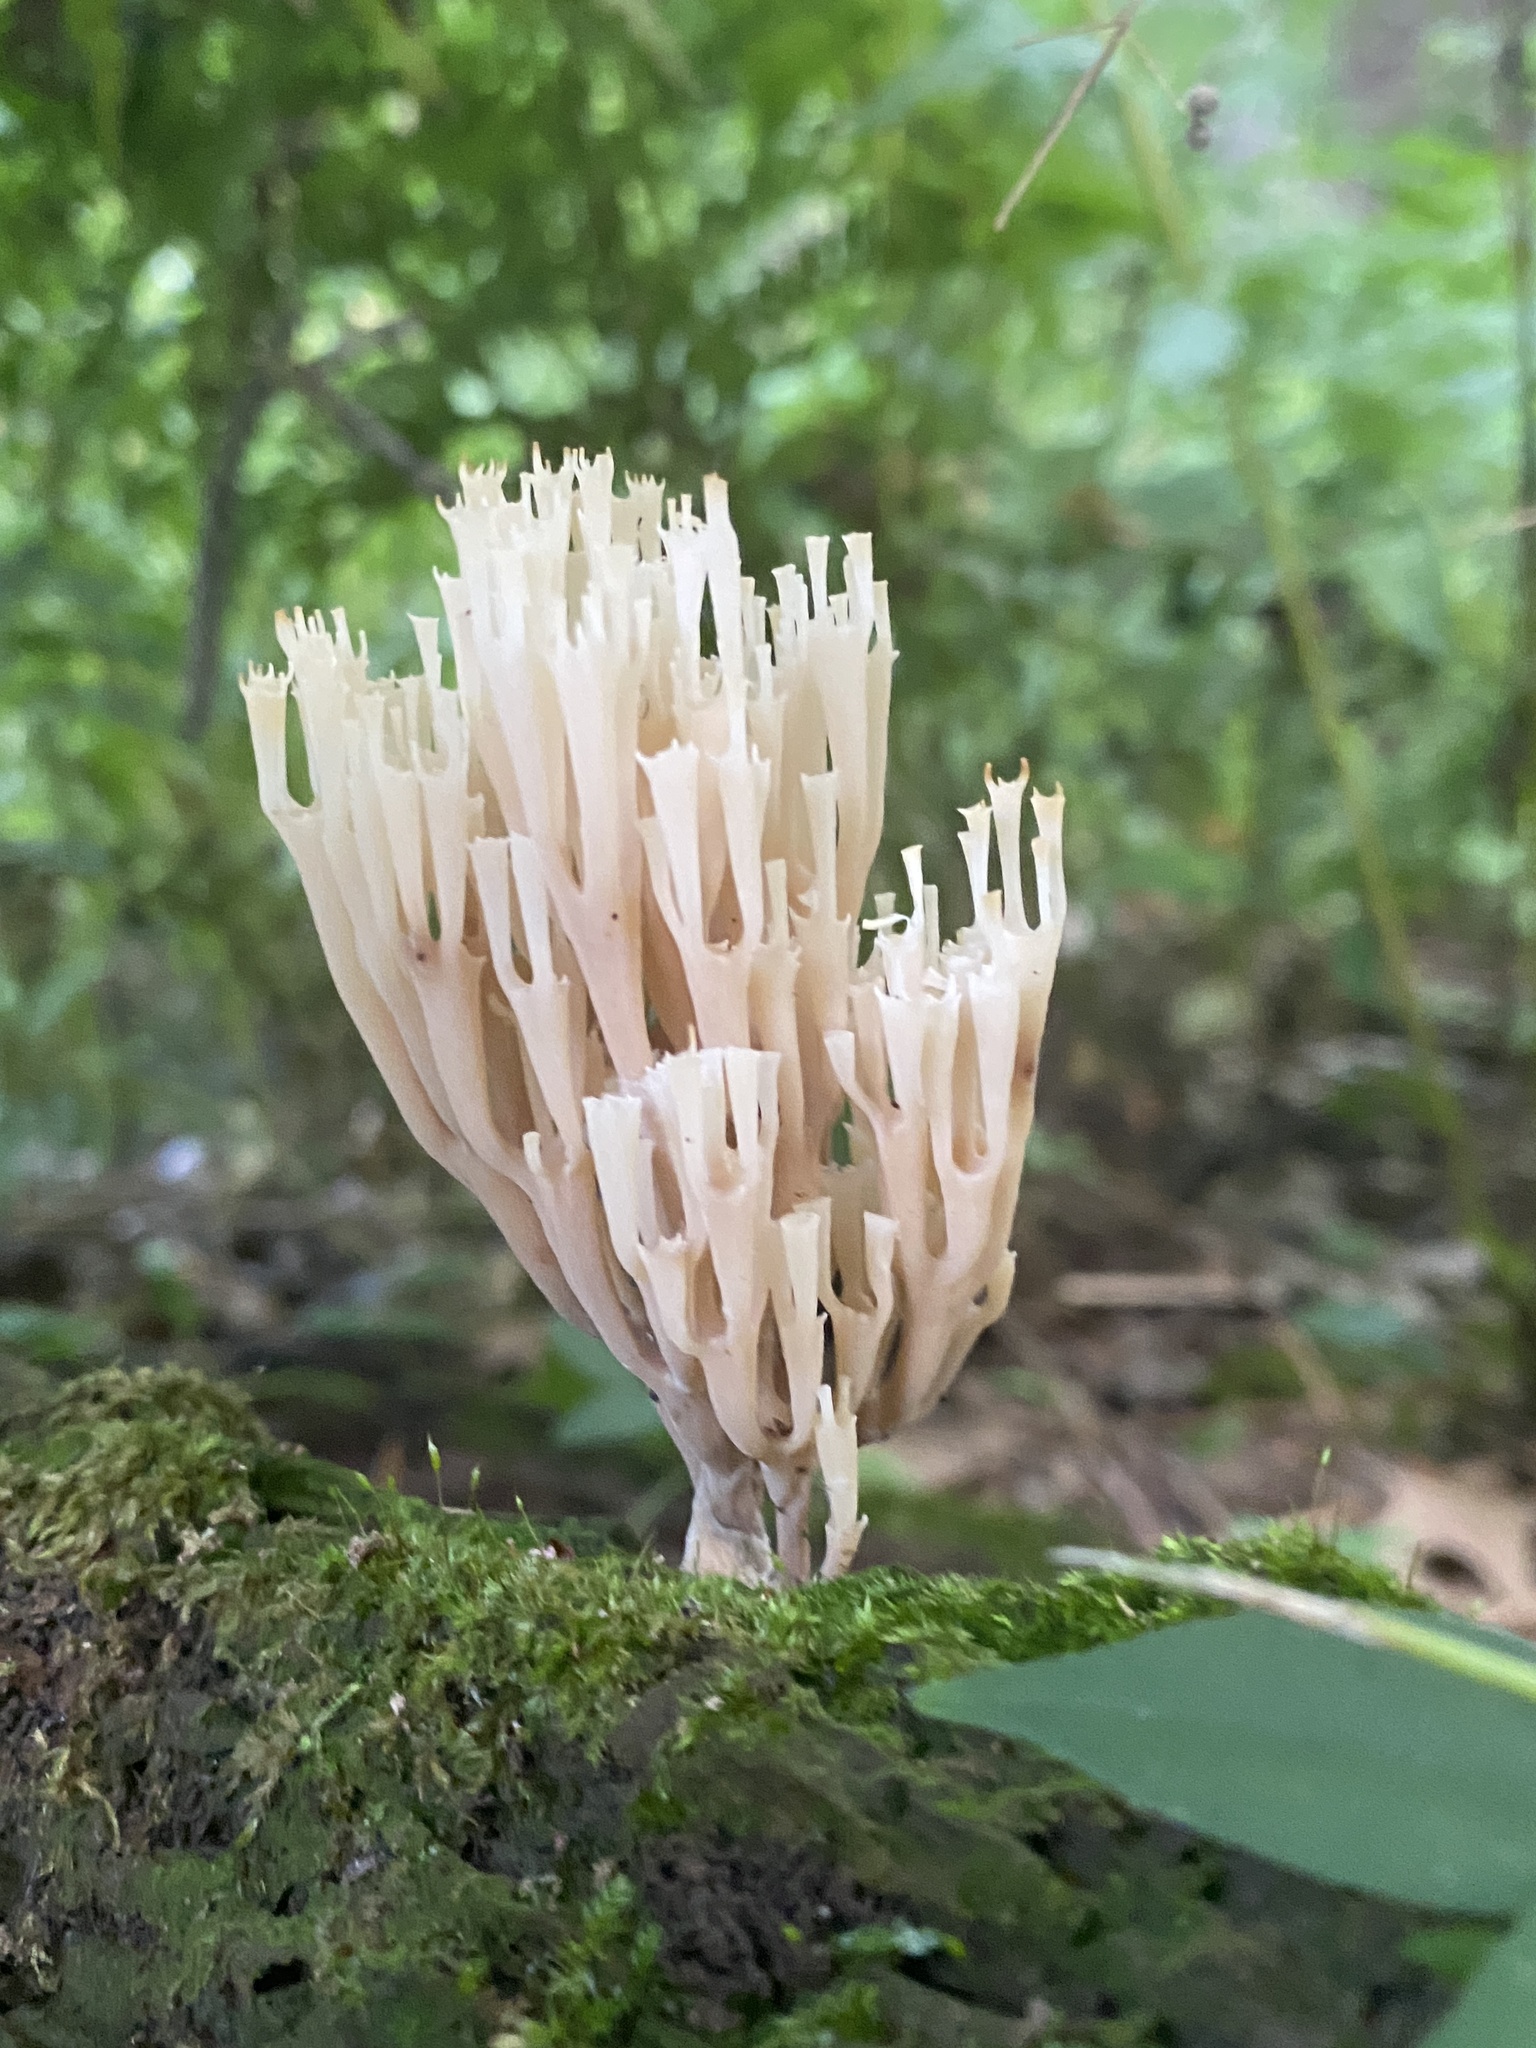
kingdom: Fungi
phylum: Basidiomycota
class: Agaricomycetes
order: Russulales
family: Auriscalpiaceae
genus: Artomyces
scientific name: Artomyces pyxidatus
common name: Crown-tipped coral fungus
